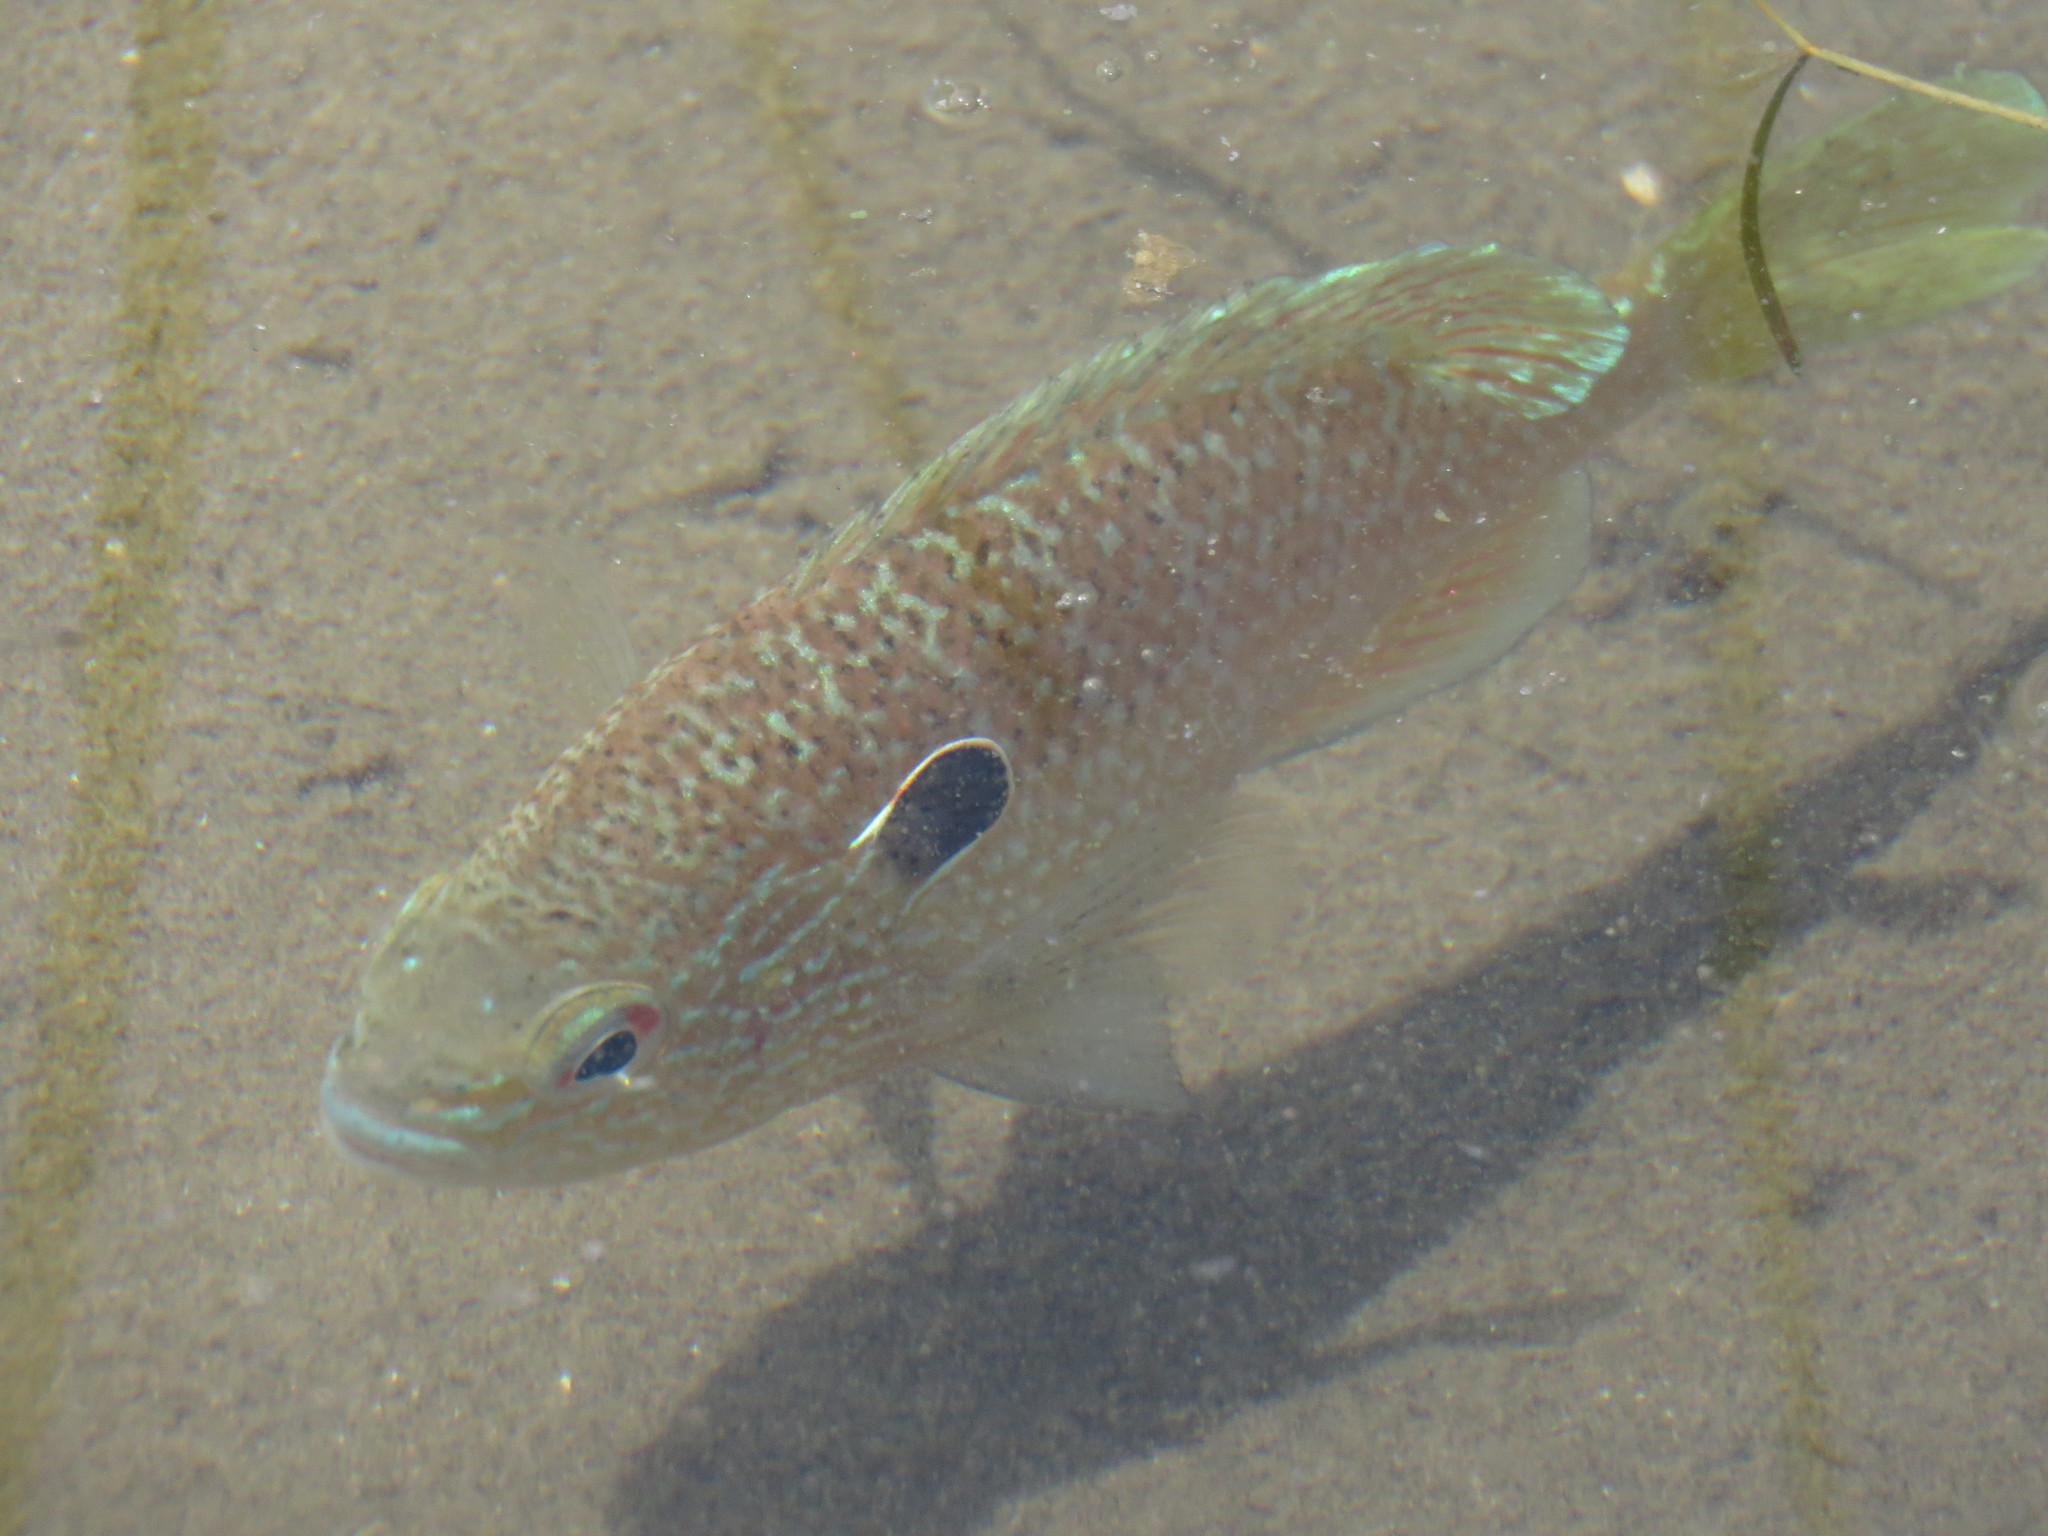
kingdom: Animalia
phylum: Chordata
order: Perciformes
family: Centrarchidae
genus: Lepomis
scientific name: Lepomis peltastes
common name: Northern sunfish
